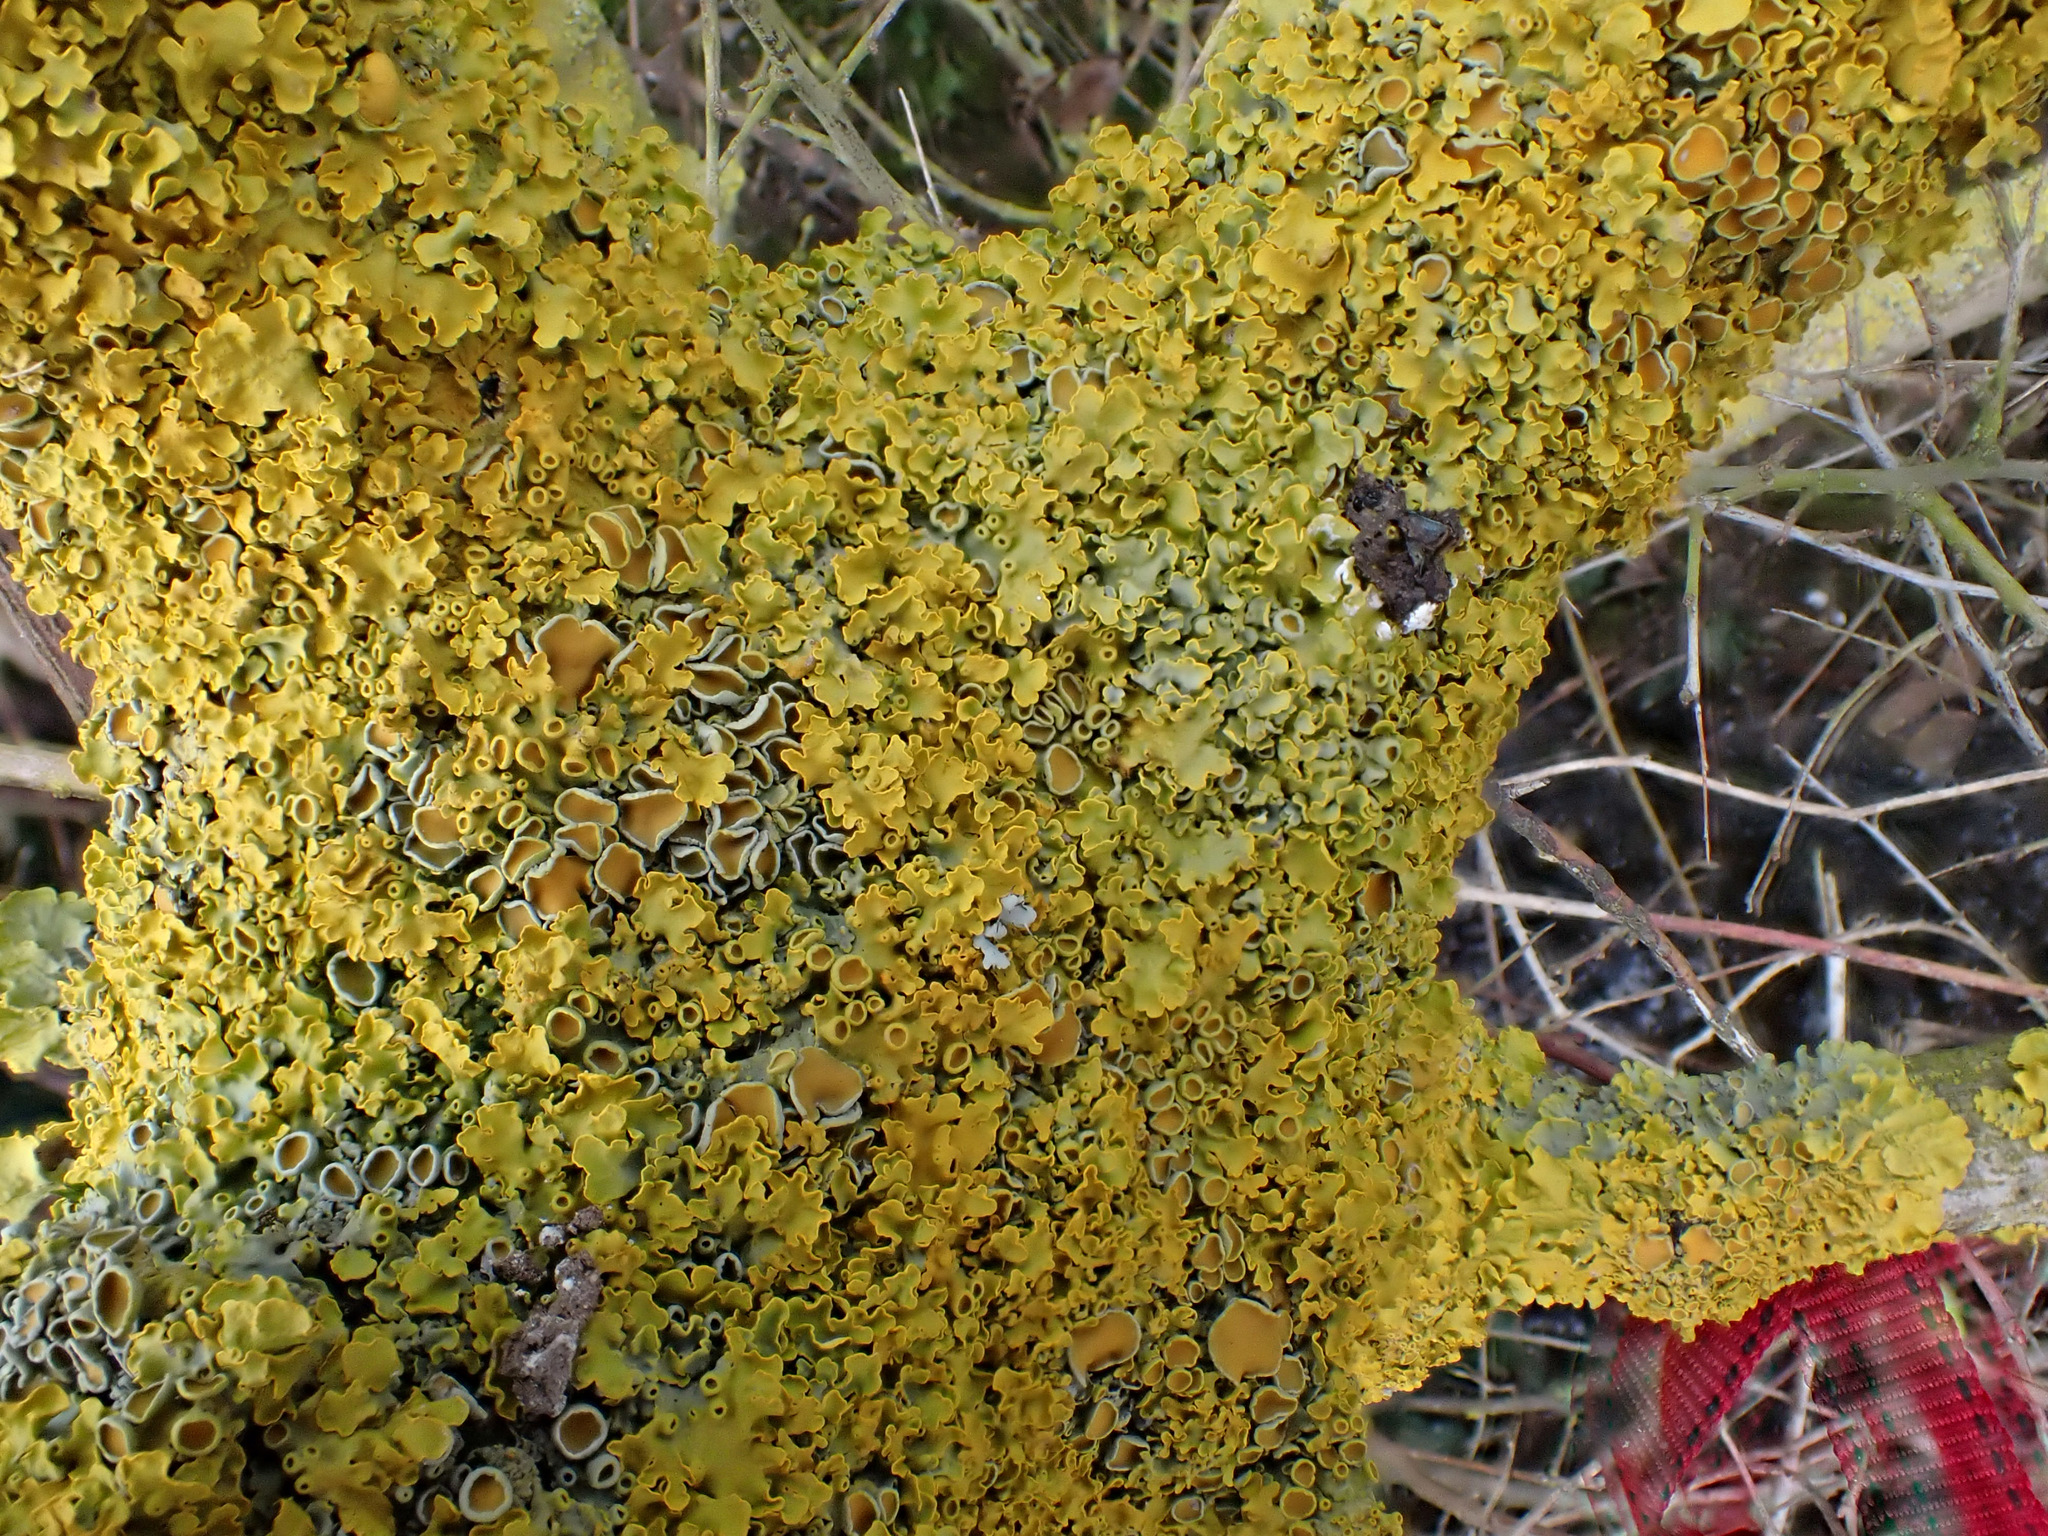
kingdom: Fungi
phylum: Ascomycota
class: Lecanoromycetes
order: Teloschistales
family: Teloschistaceae
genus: Xanthoria
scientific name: Xanthoria parietina
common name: Common orange lichen
